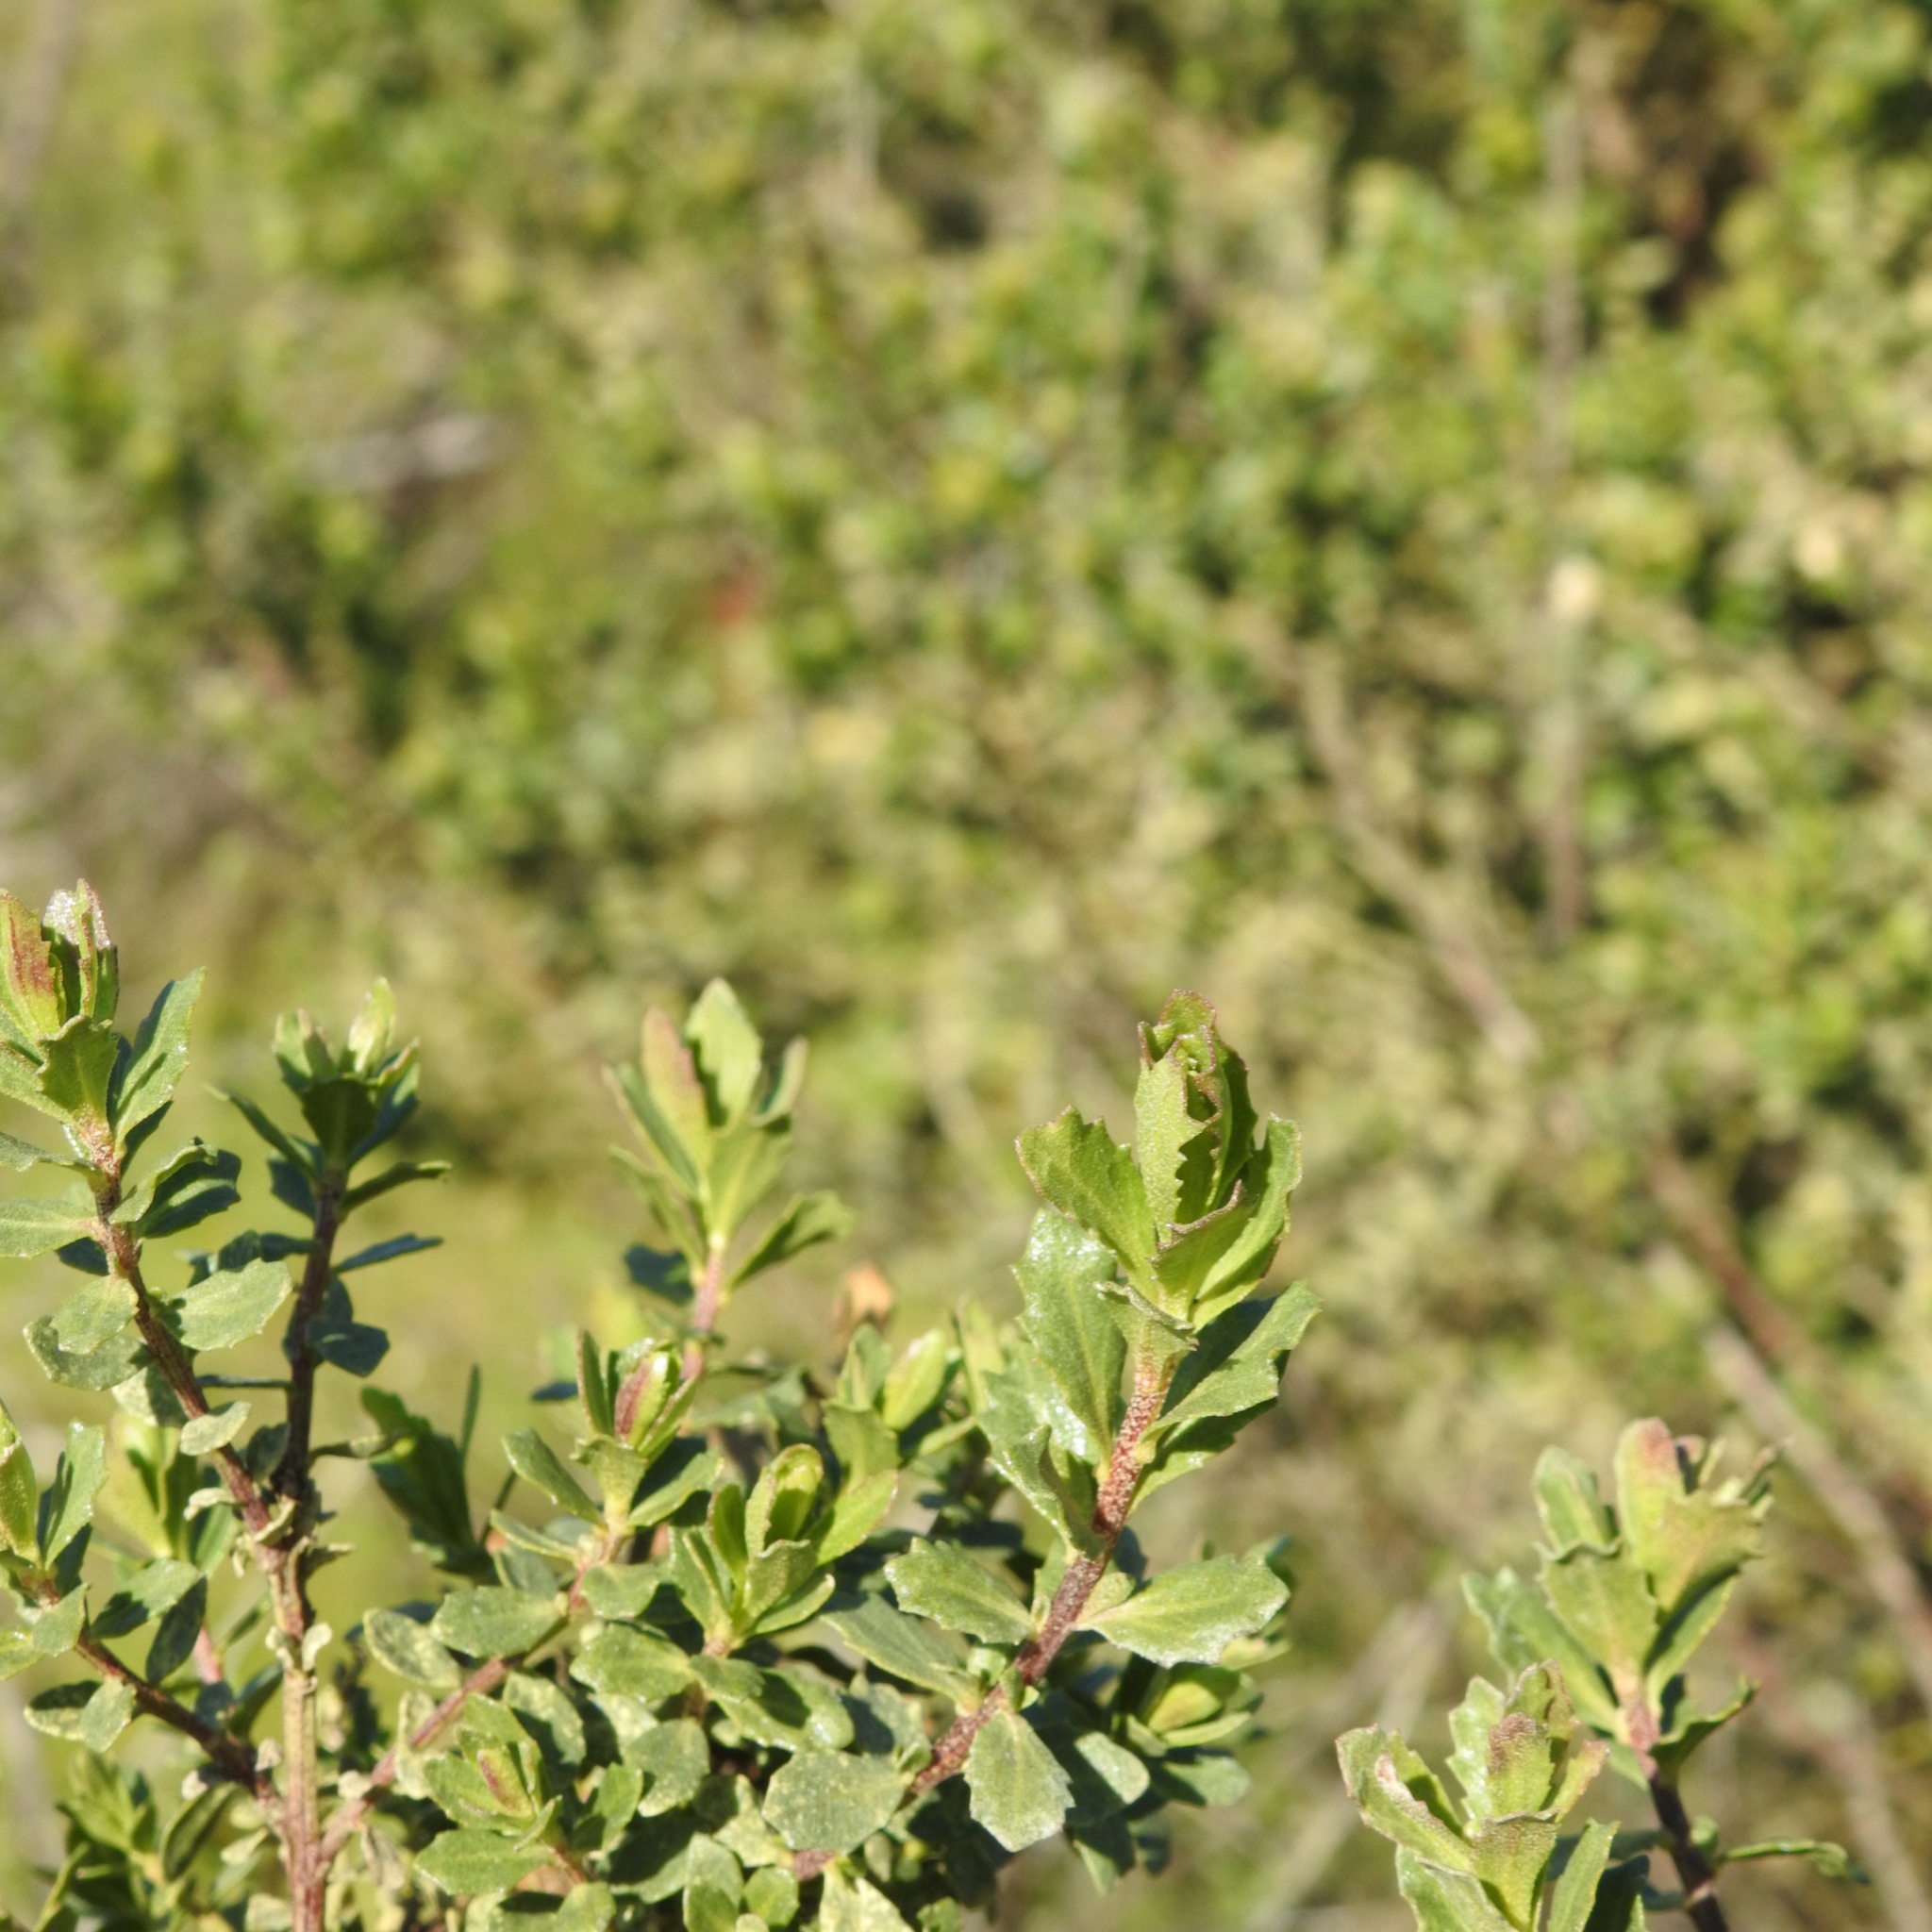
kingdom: Plantae
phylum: Tracheophyta
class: Magnoliopsida
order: Asterales
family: Asteraceae
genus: Baccharis
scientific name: Baccharis pilularis
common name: Coyotebrush
